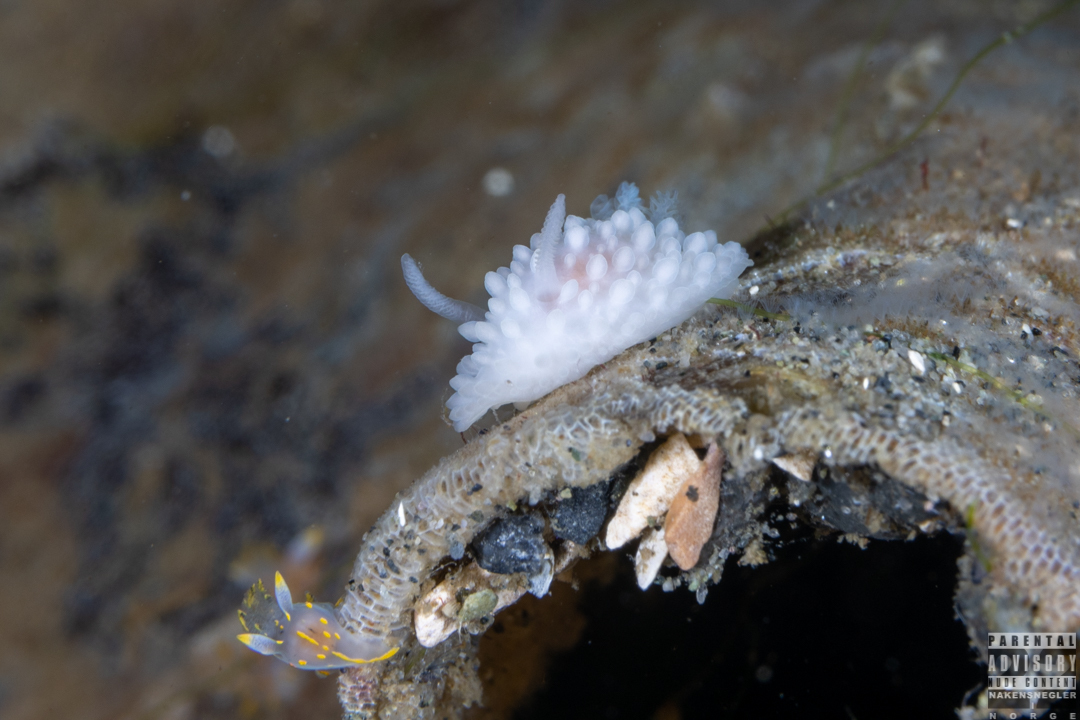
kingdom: Animalia
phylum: Mollusca
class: Gastropoda
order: Nudibranchia
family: Onchidorididae
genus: Adalaria
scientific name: Adalaria proxima
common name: False doris
